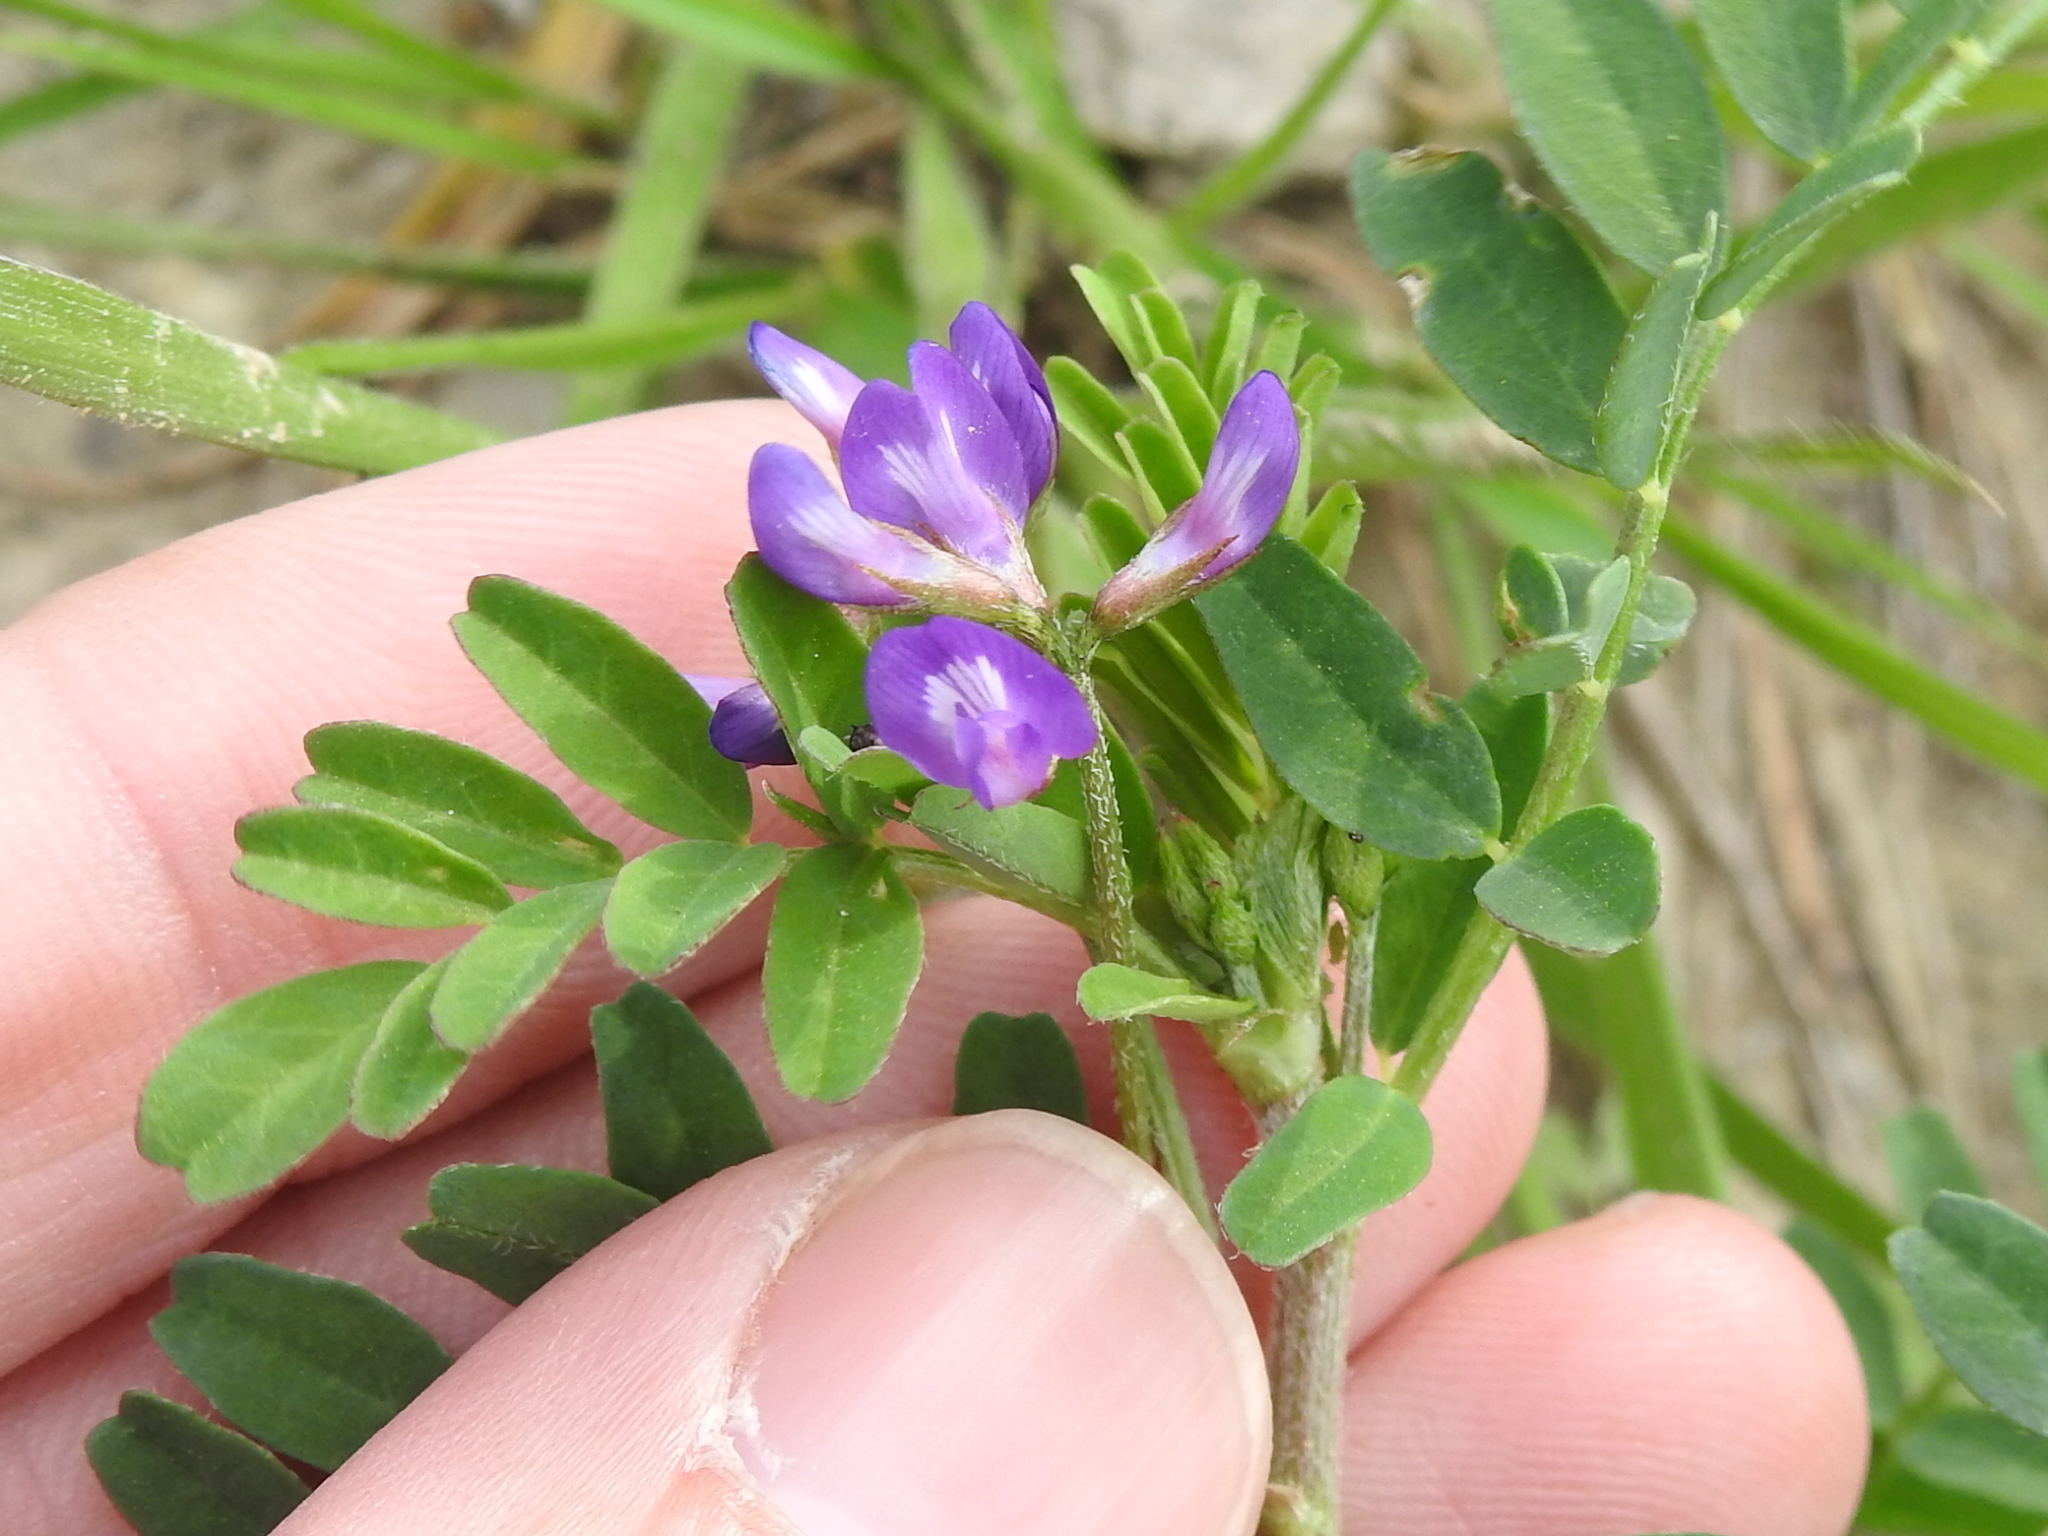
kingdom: Plantae
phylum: Tracheophyta
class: Magnoliopsida
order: Fabales
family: Fabaceae
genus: Astragalus
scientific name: Astragalus nuttallianus
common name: Smallflowered milkvetch
